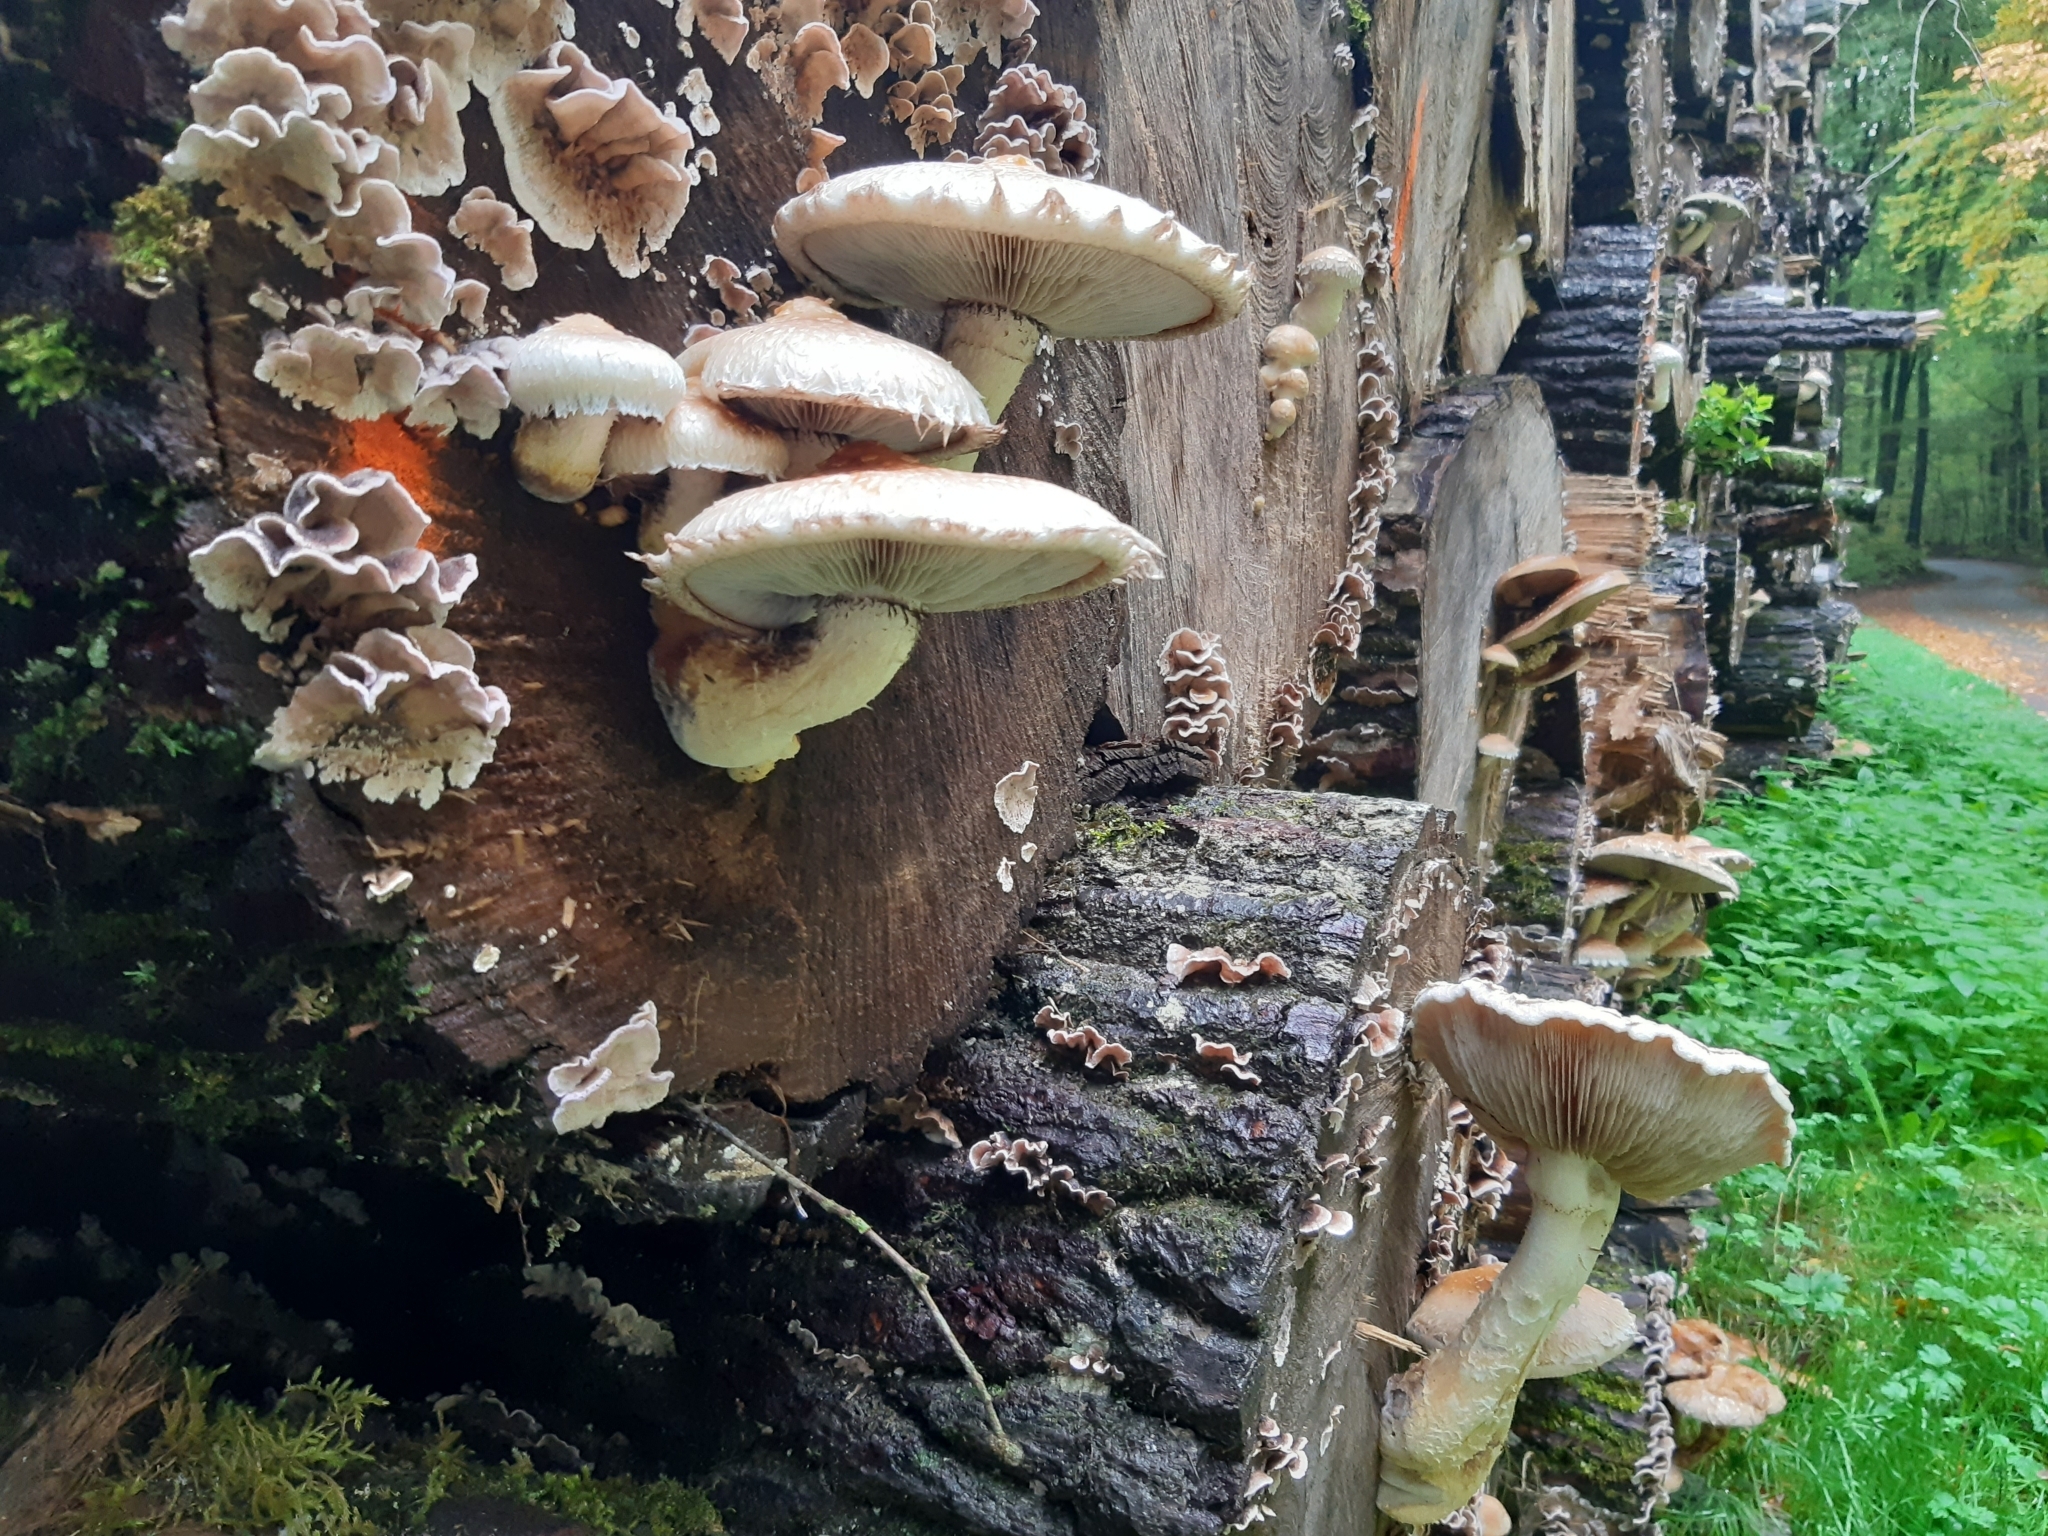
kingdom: Fungi
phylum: Basidiomycota
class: Agaricomycetes
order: Agaricales
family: Strophariaceae
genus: Pholiota
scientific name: Pholiota populnea
